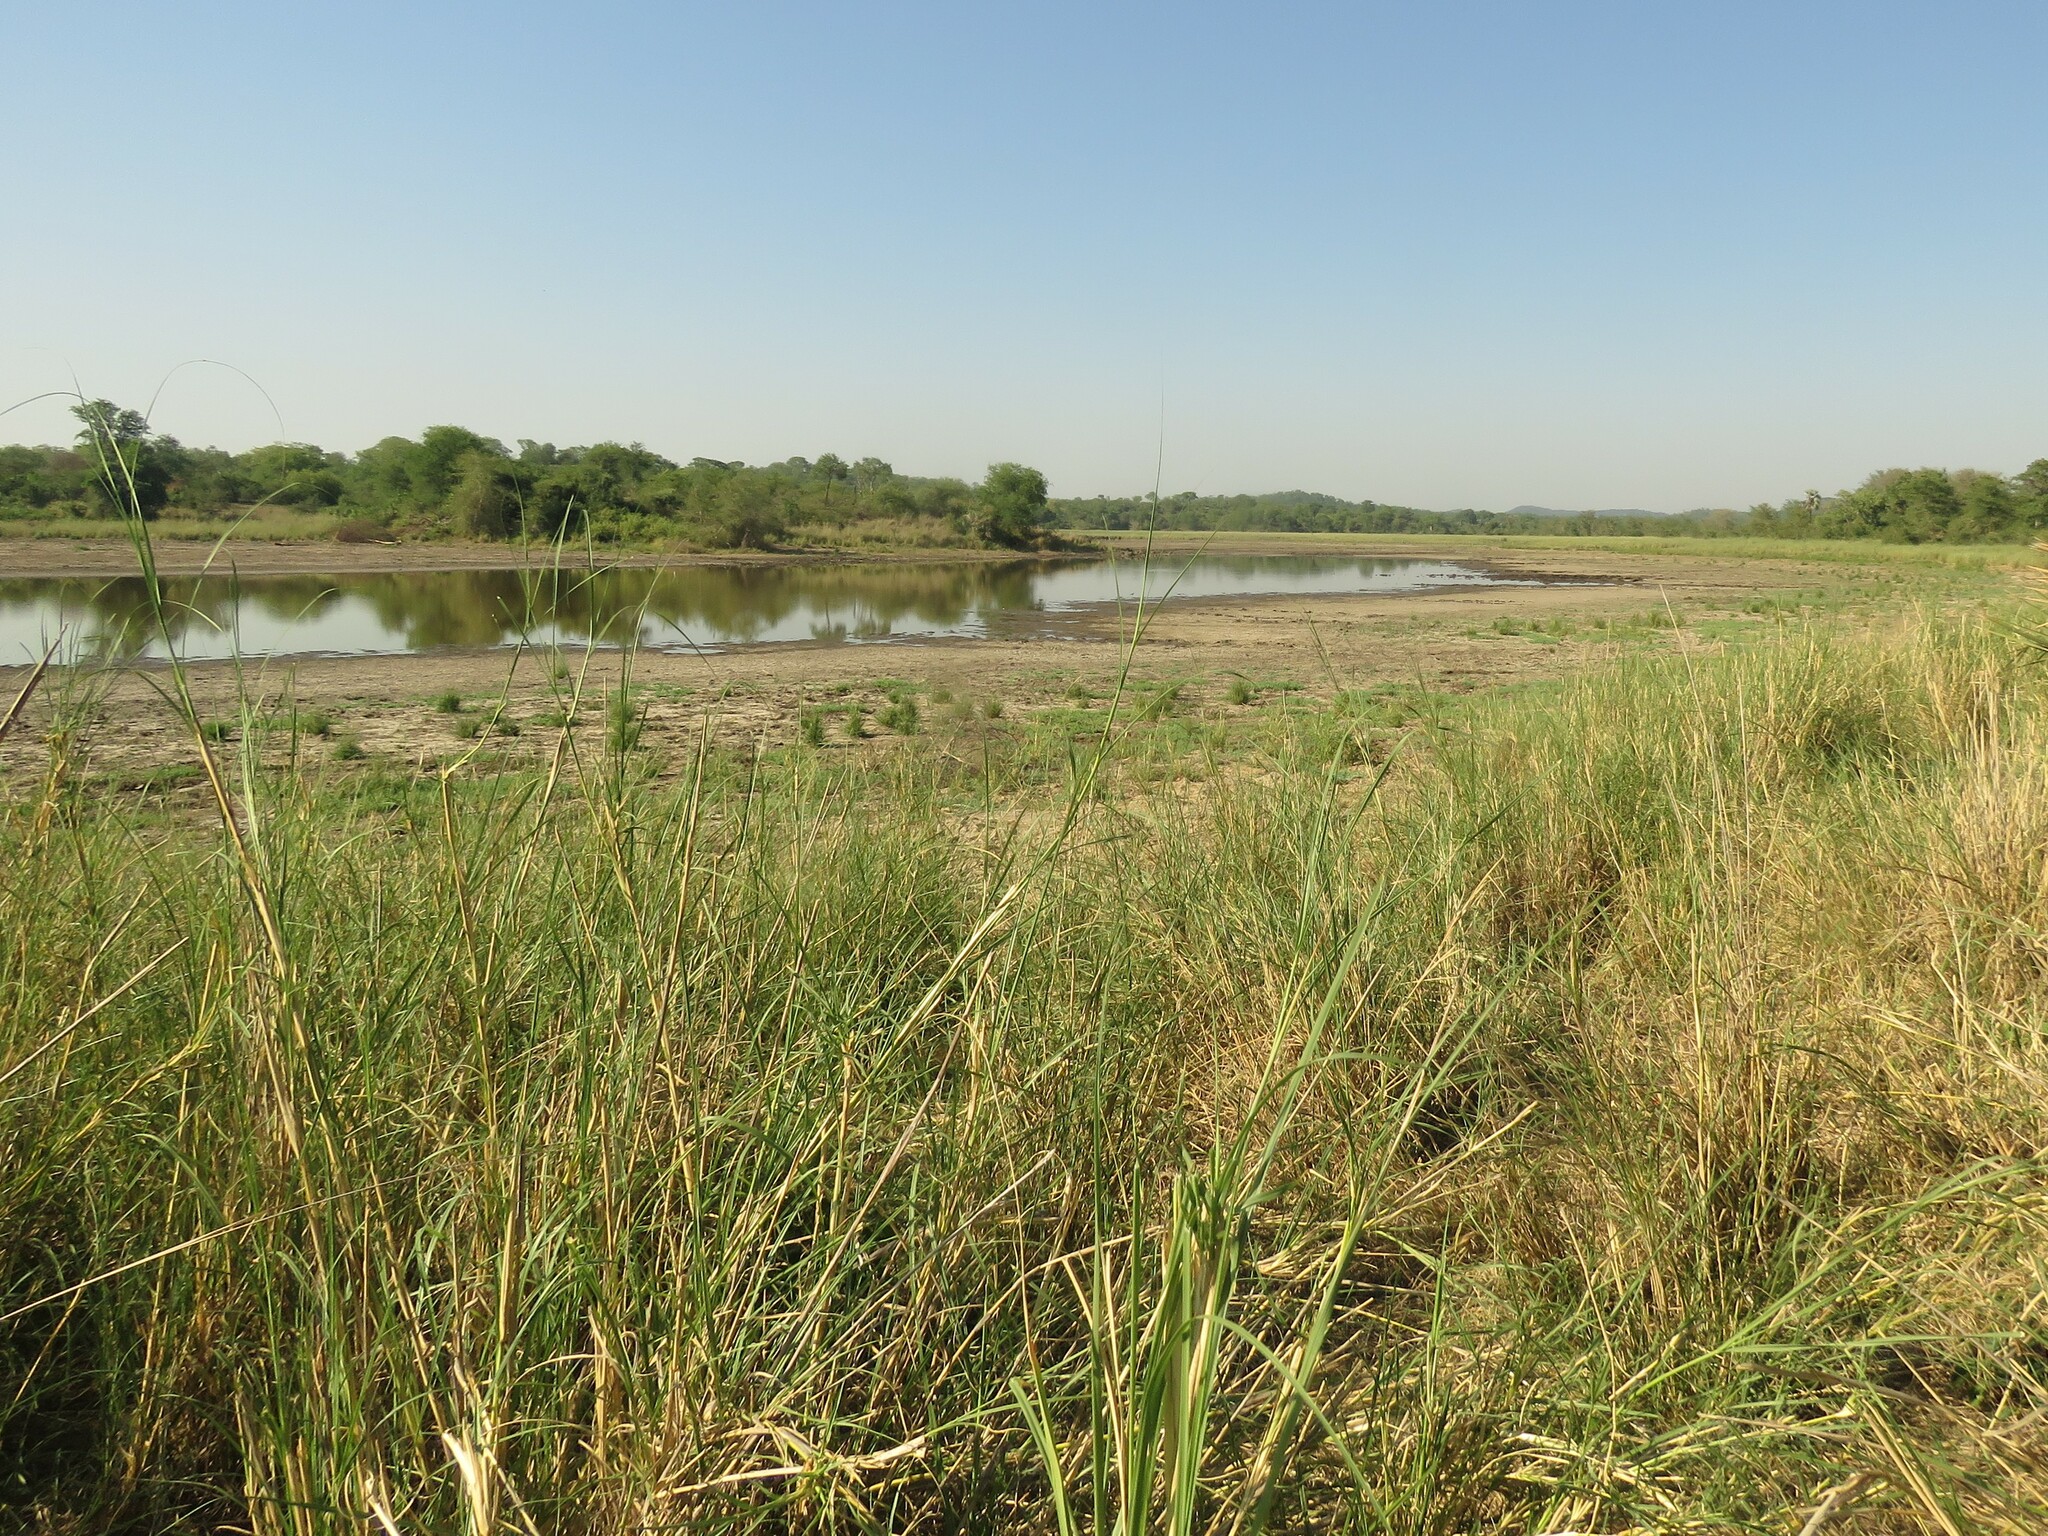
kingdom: Plantae
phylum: Tracheophyta
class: Liliopsida
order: Poales
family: Poaceae
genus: Sporobolus
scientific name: Sporobolus consimilis
